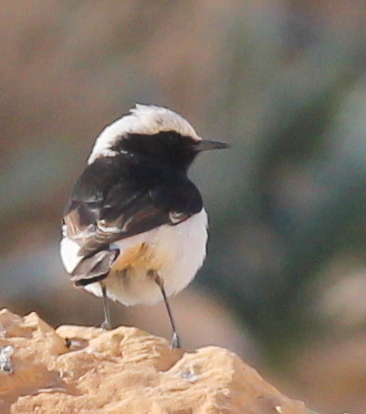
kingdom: Animalia
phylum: Chordata
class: Aves
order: Passeriformes
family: Muscicapidae
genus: Oenanthe
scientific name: Oenanthe lugens
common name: Mourning wheatear
